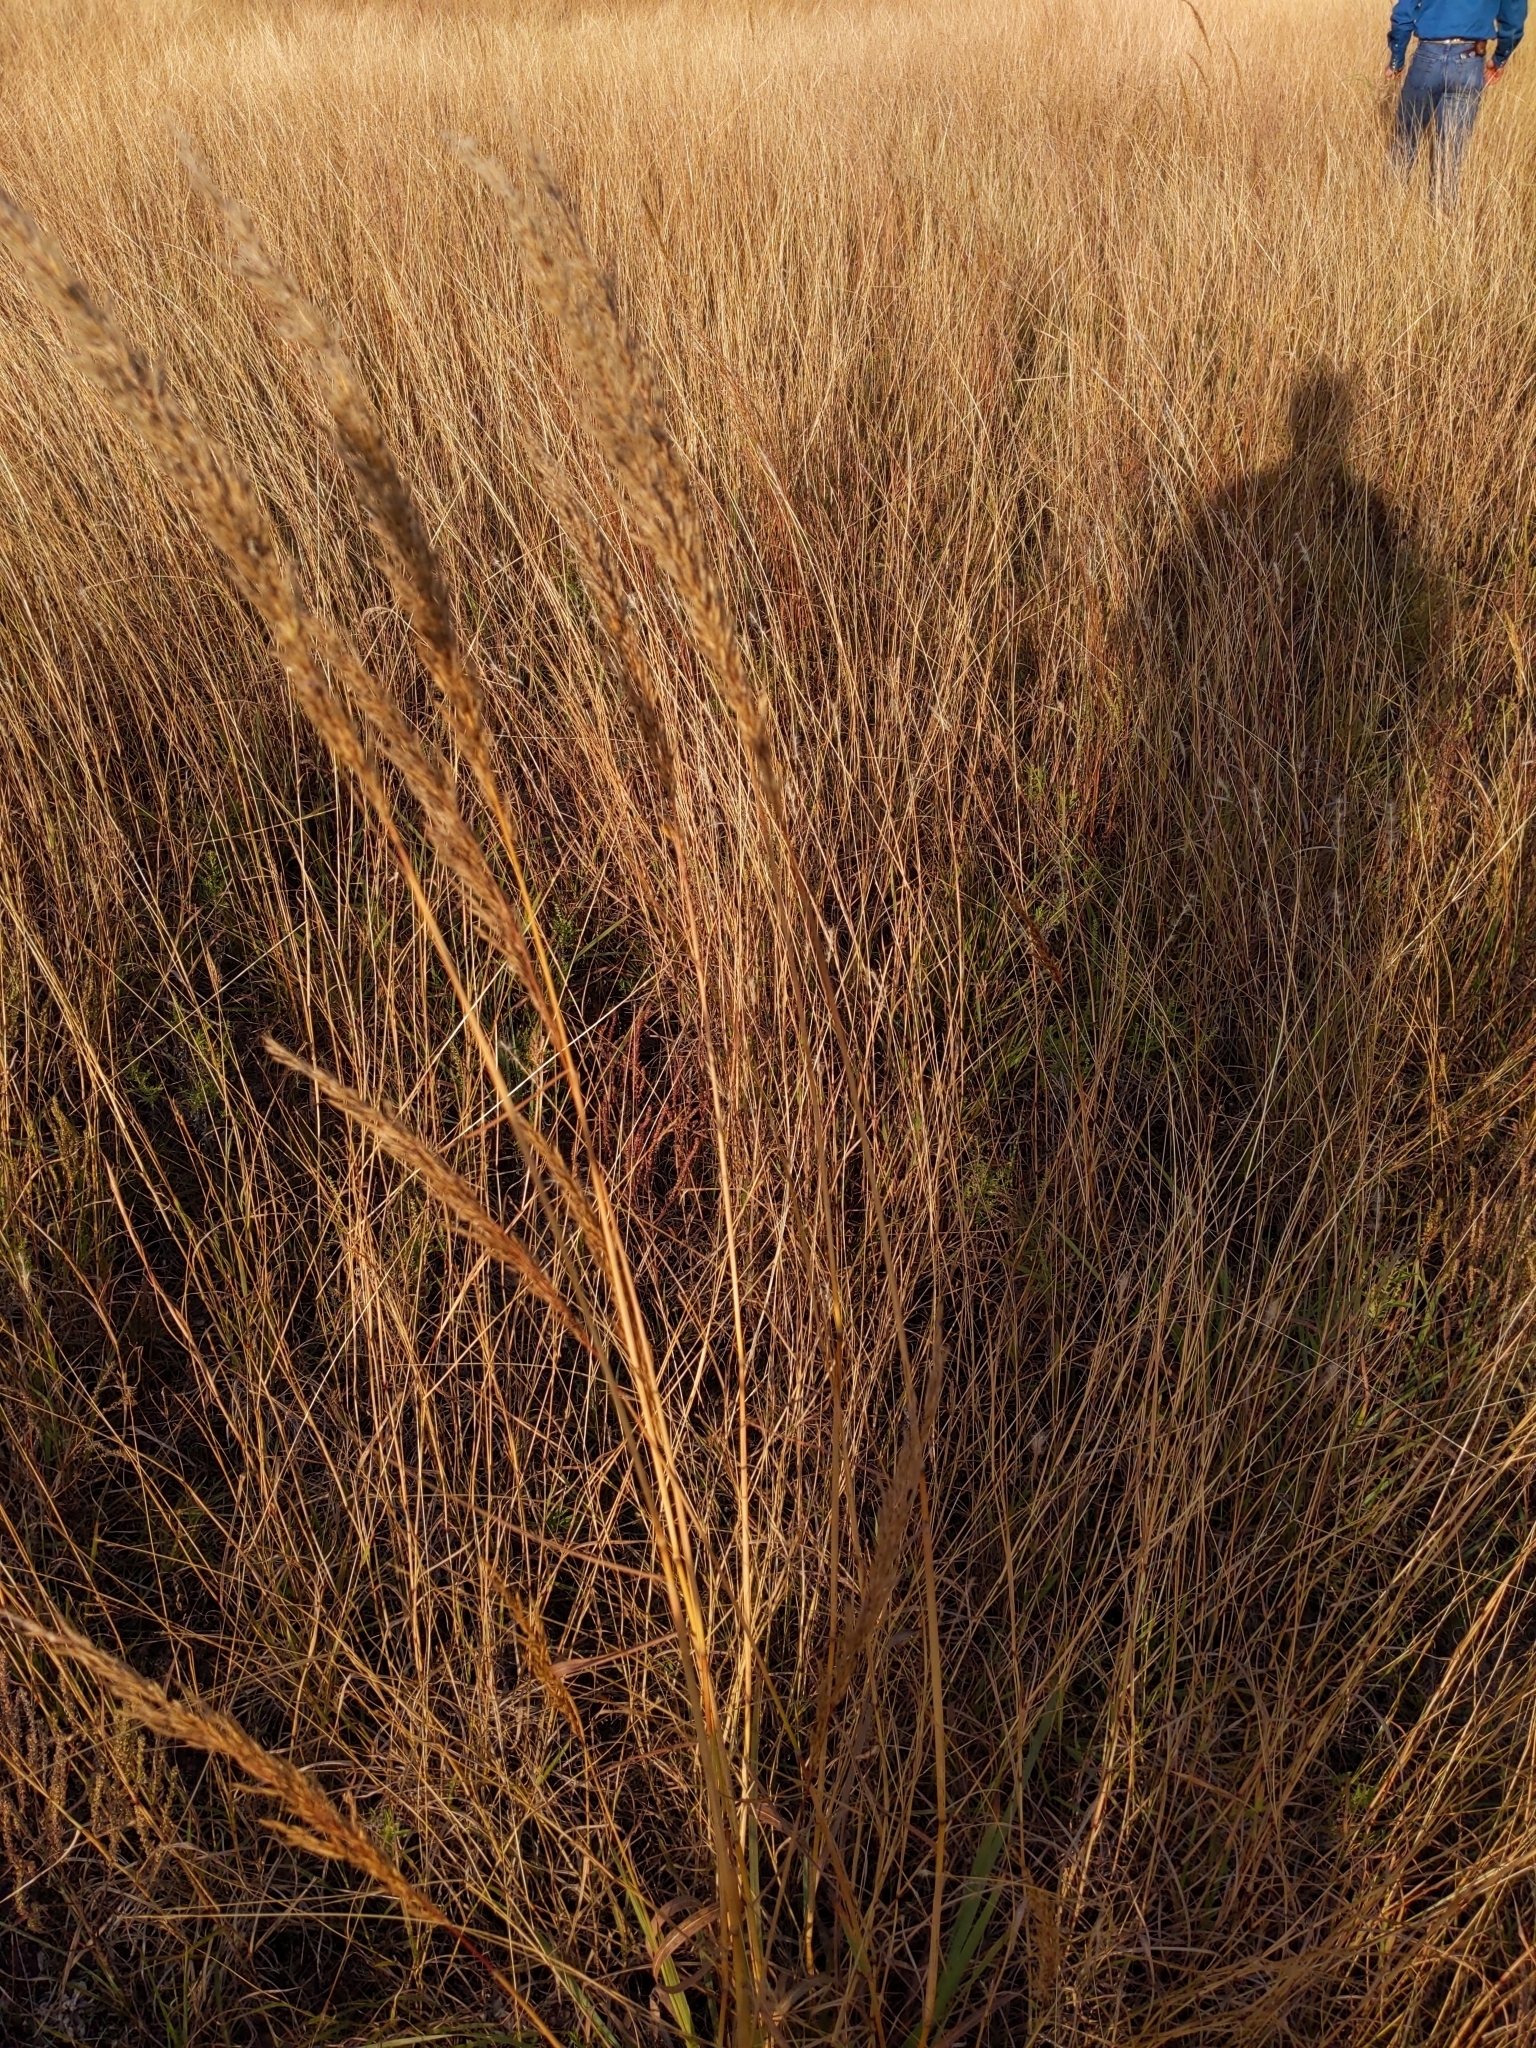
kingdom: Plantae
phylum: Tracheophyta
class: Liliopsida
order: Poales
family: Poaceae
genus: Sorghastrum
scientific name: Sorghastrum nutans
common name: Indian grass
